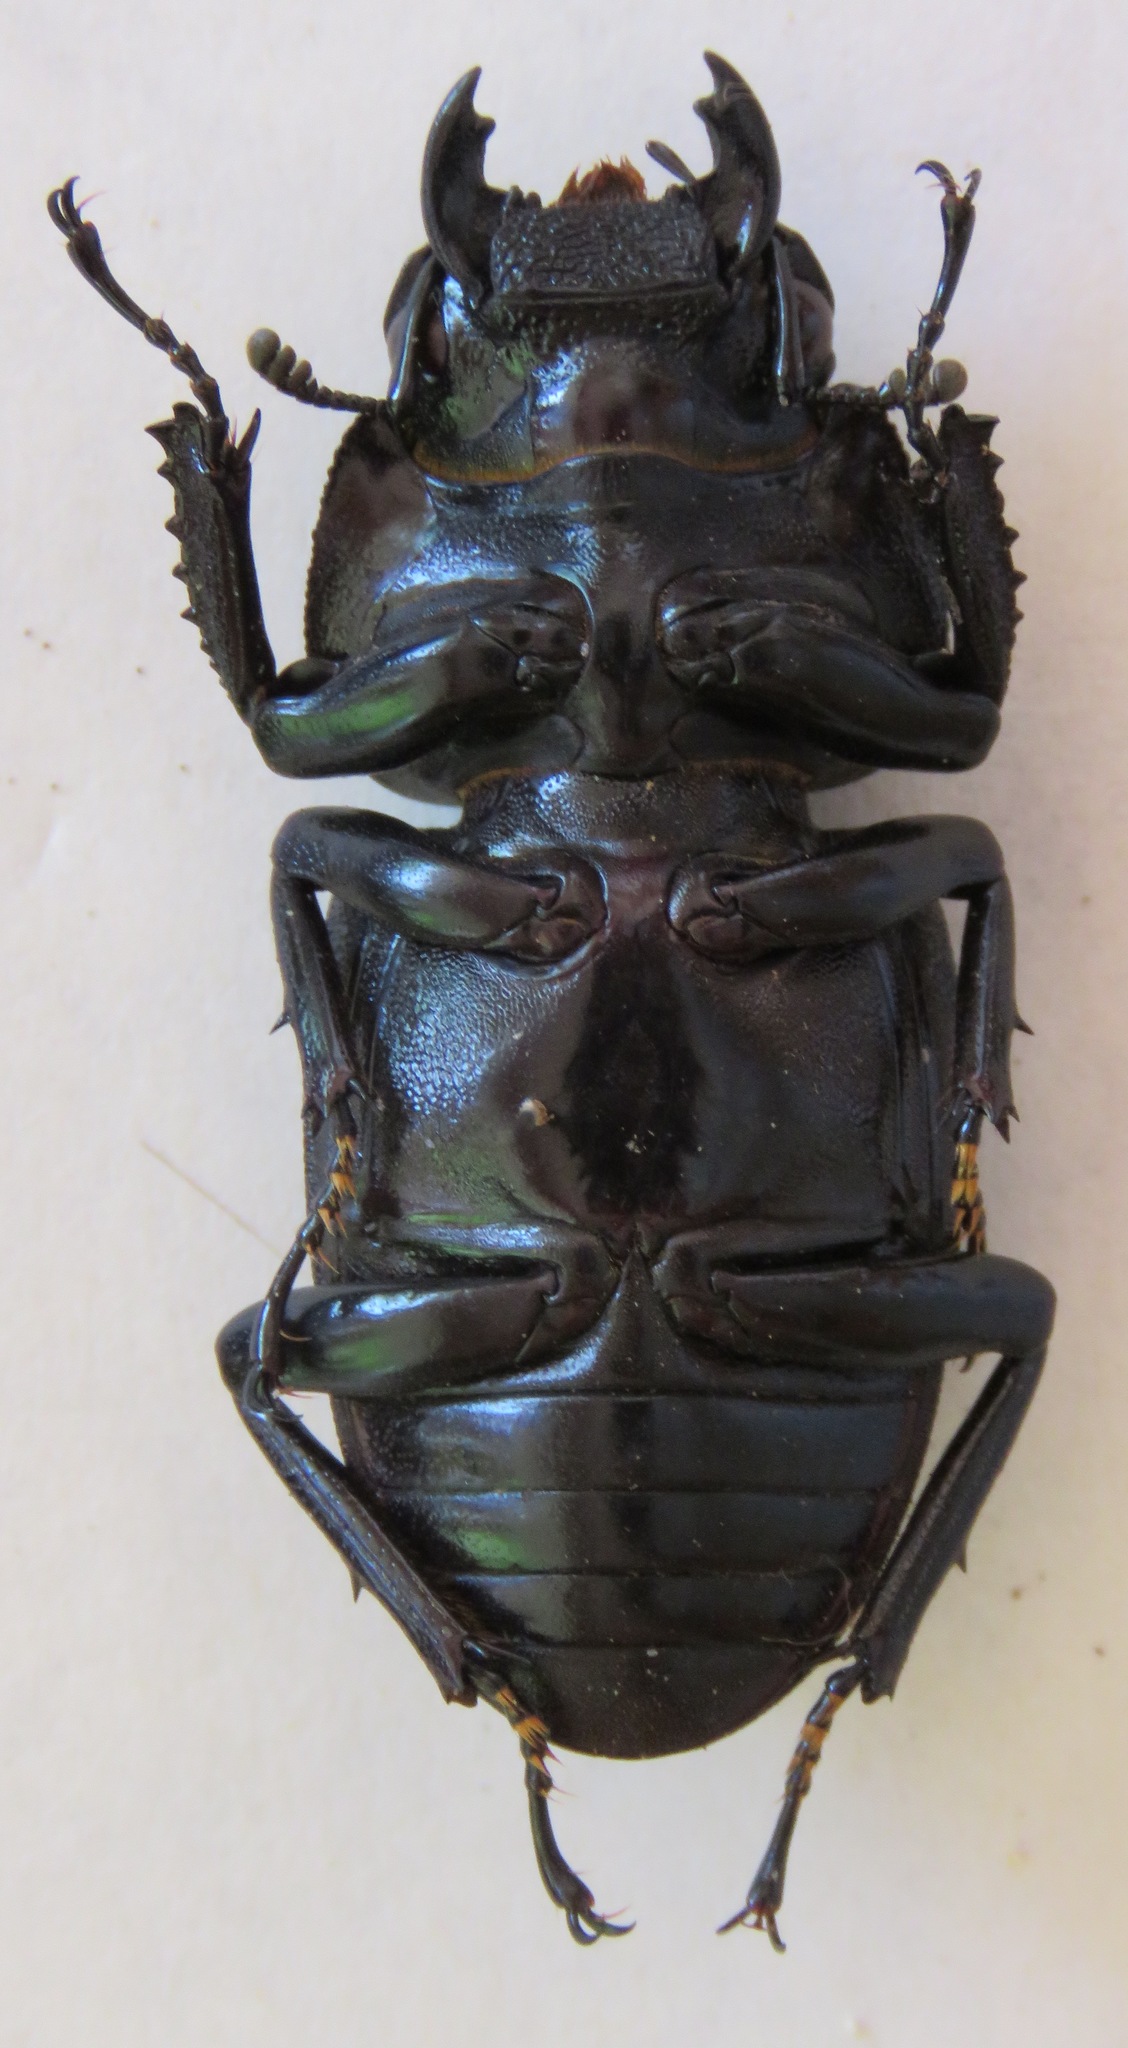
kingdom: Animalia
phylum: Arthropoda
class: Insecta
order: Coleoptera
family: Lucanidae
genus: Dorcus
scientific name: Dorcus schenklingi
